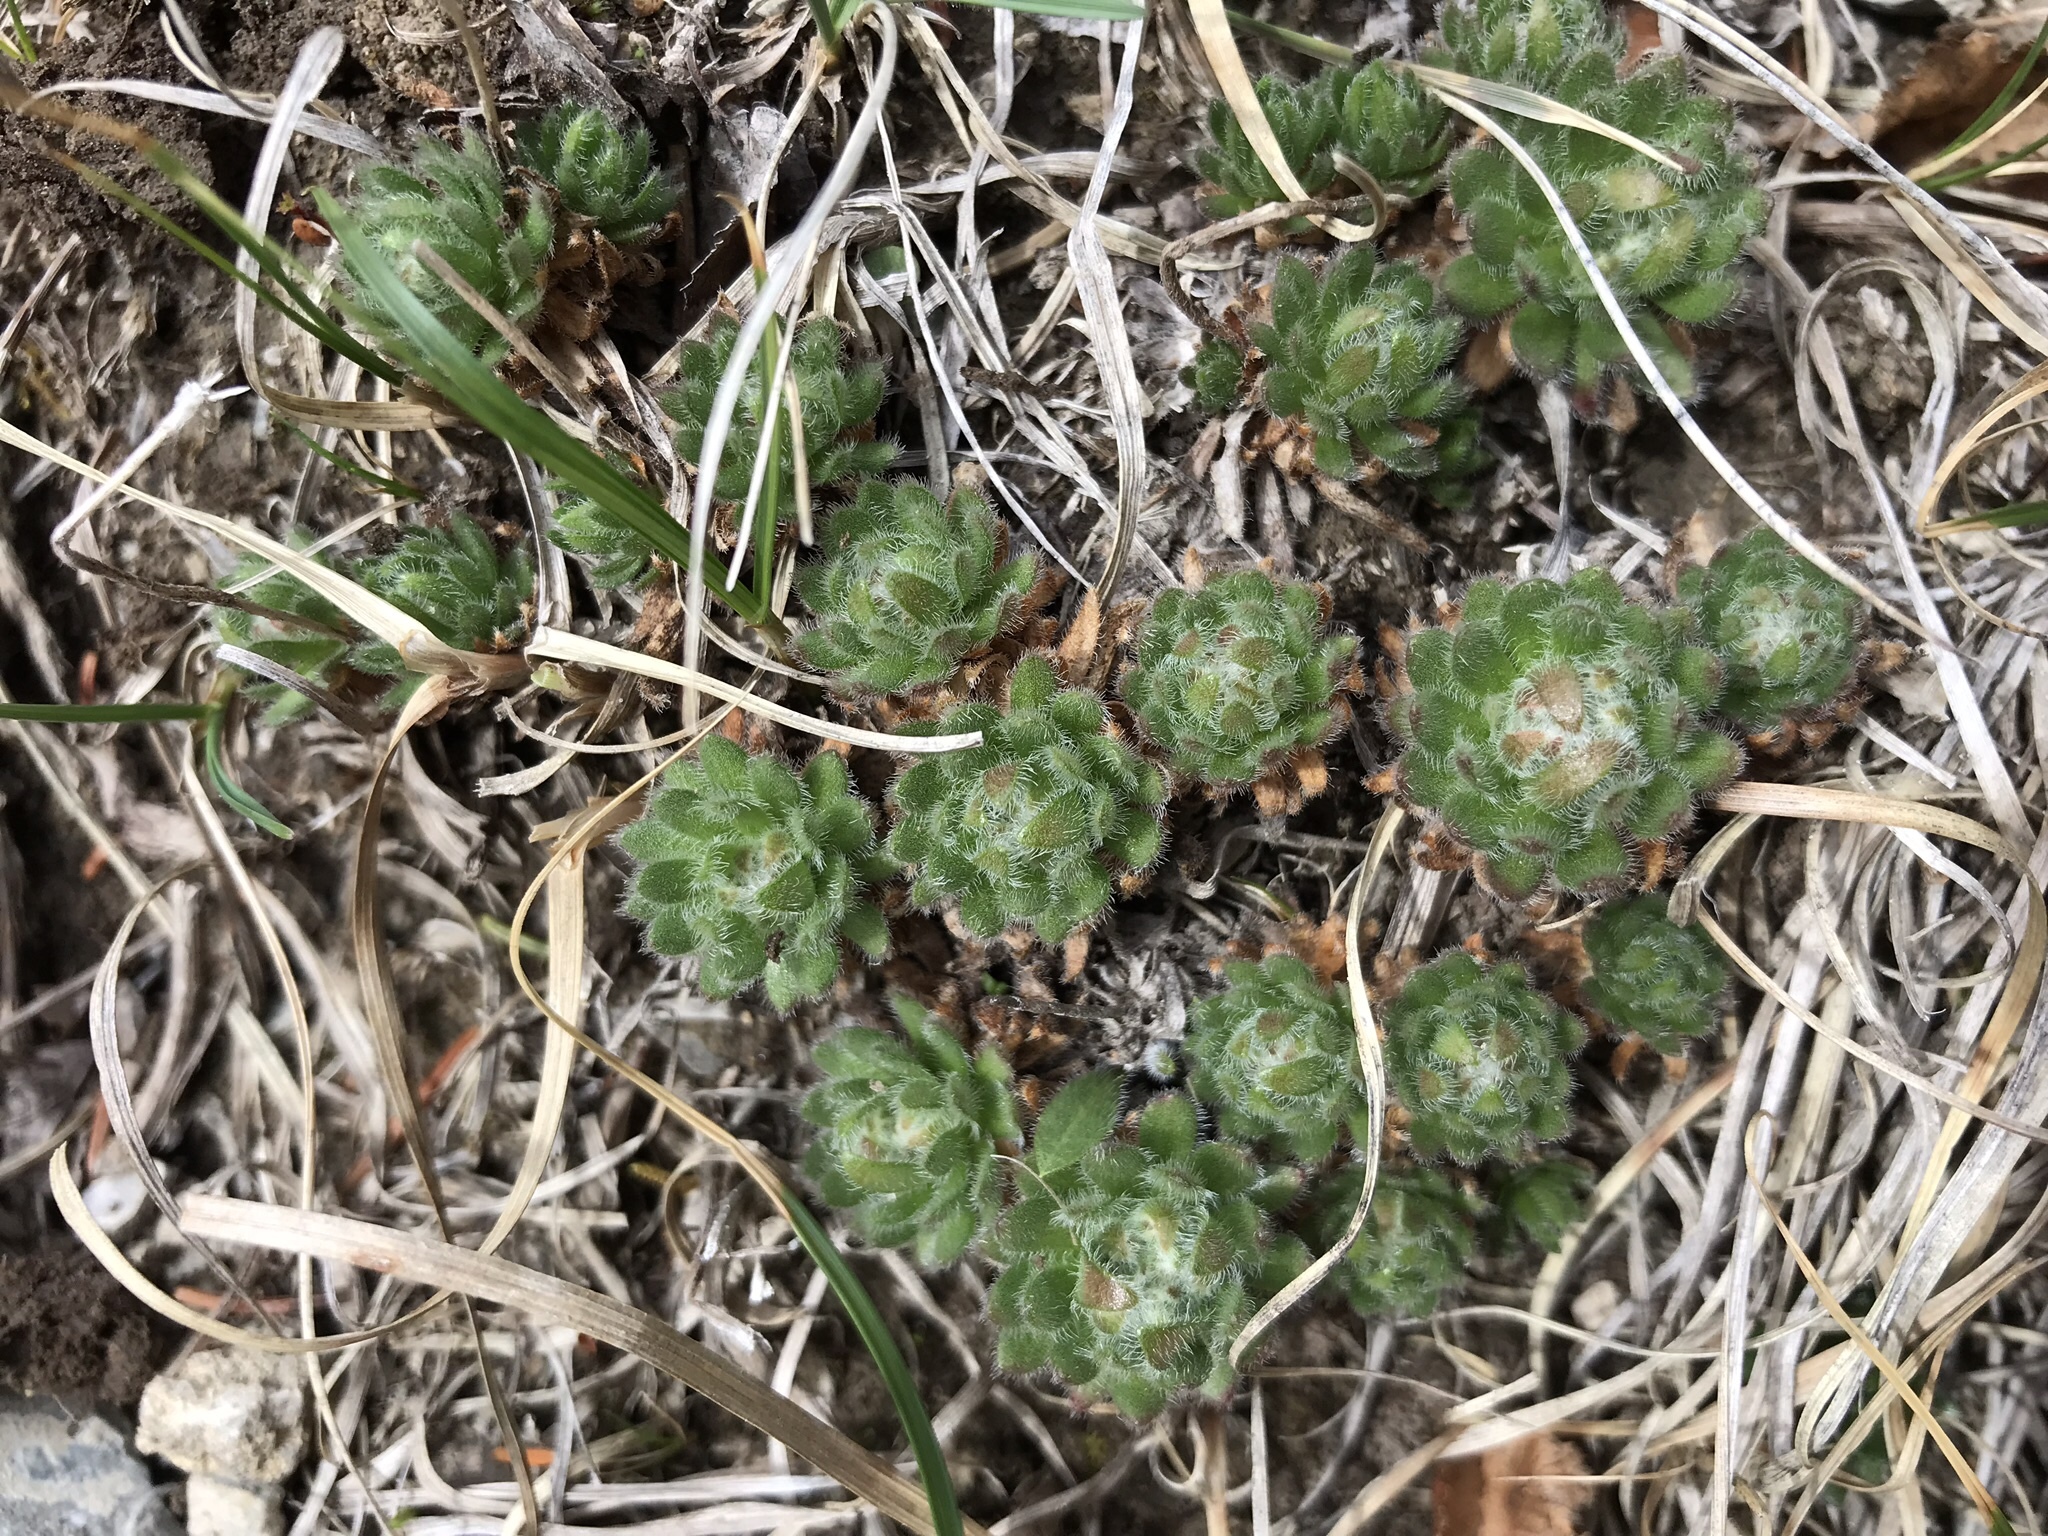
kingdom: Plantae
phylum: Tracheophyta
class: Magnoliopsida
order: Ericales
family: Primulaceae
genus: Androsace
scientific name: Androsace chamaejasme
